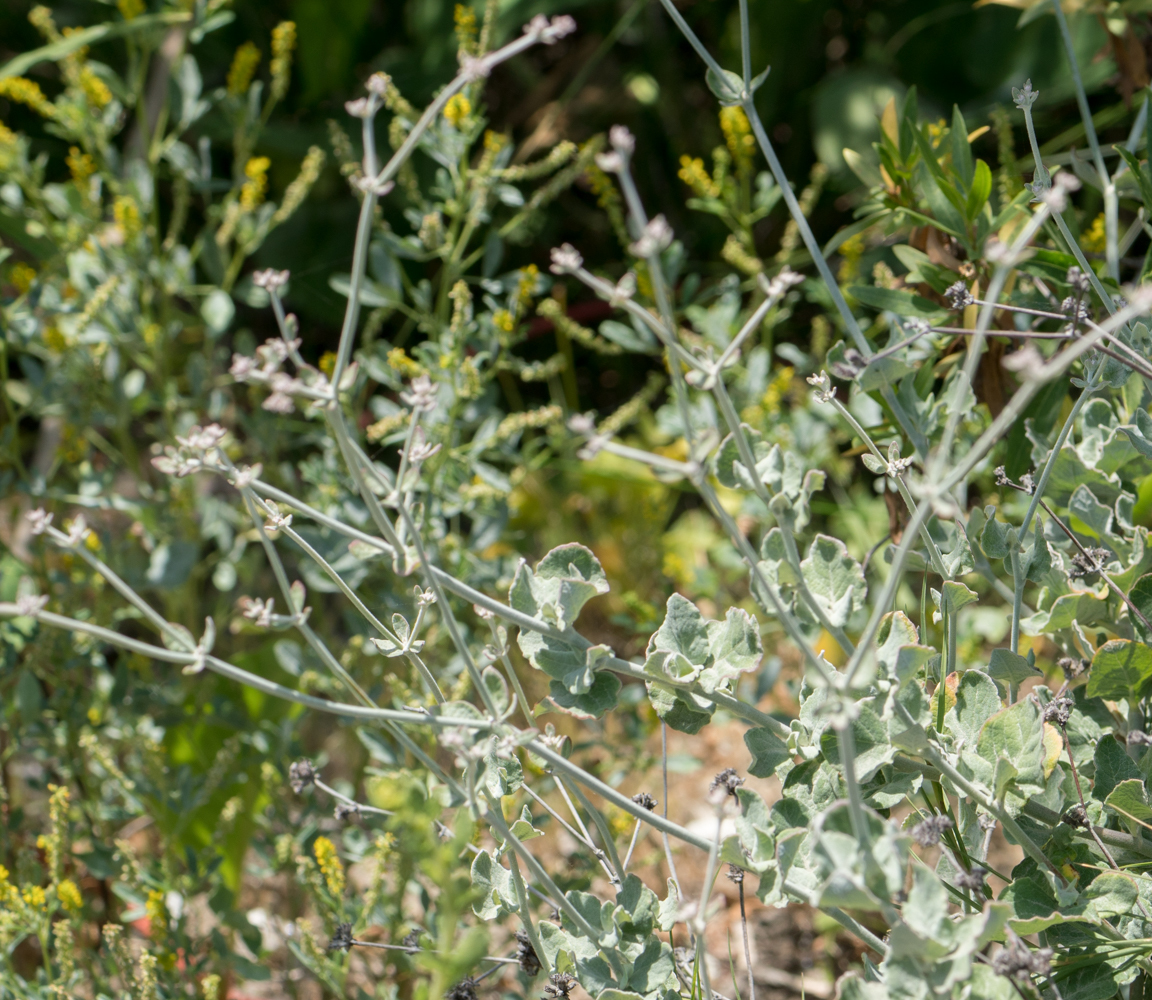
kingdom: Plantae
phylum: Tracheophyta
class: Magnoliopsida
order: Caryophyllales
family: Polygonaceae
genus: Eriogonum
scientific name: Eriogonum cinereum
